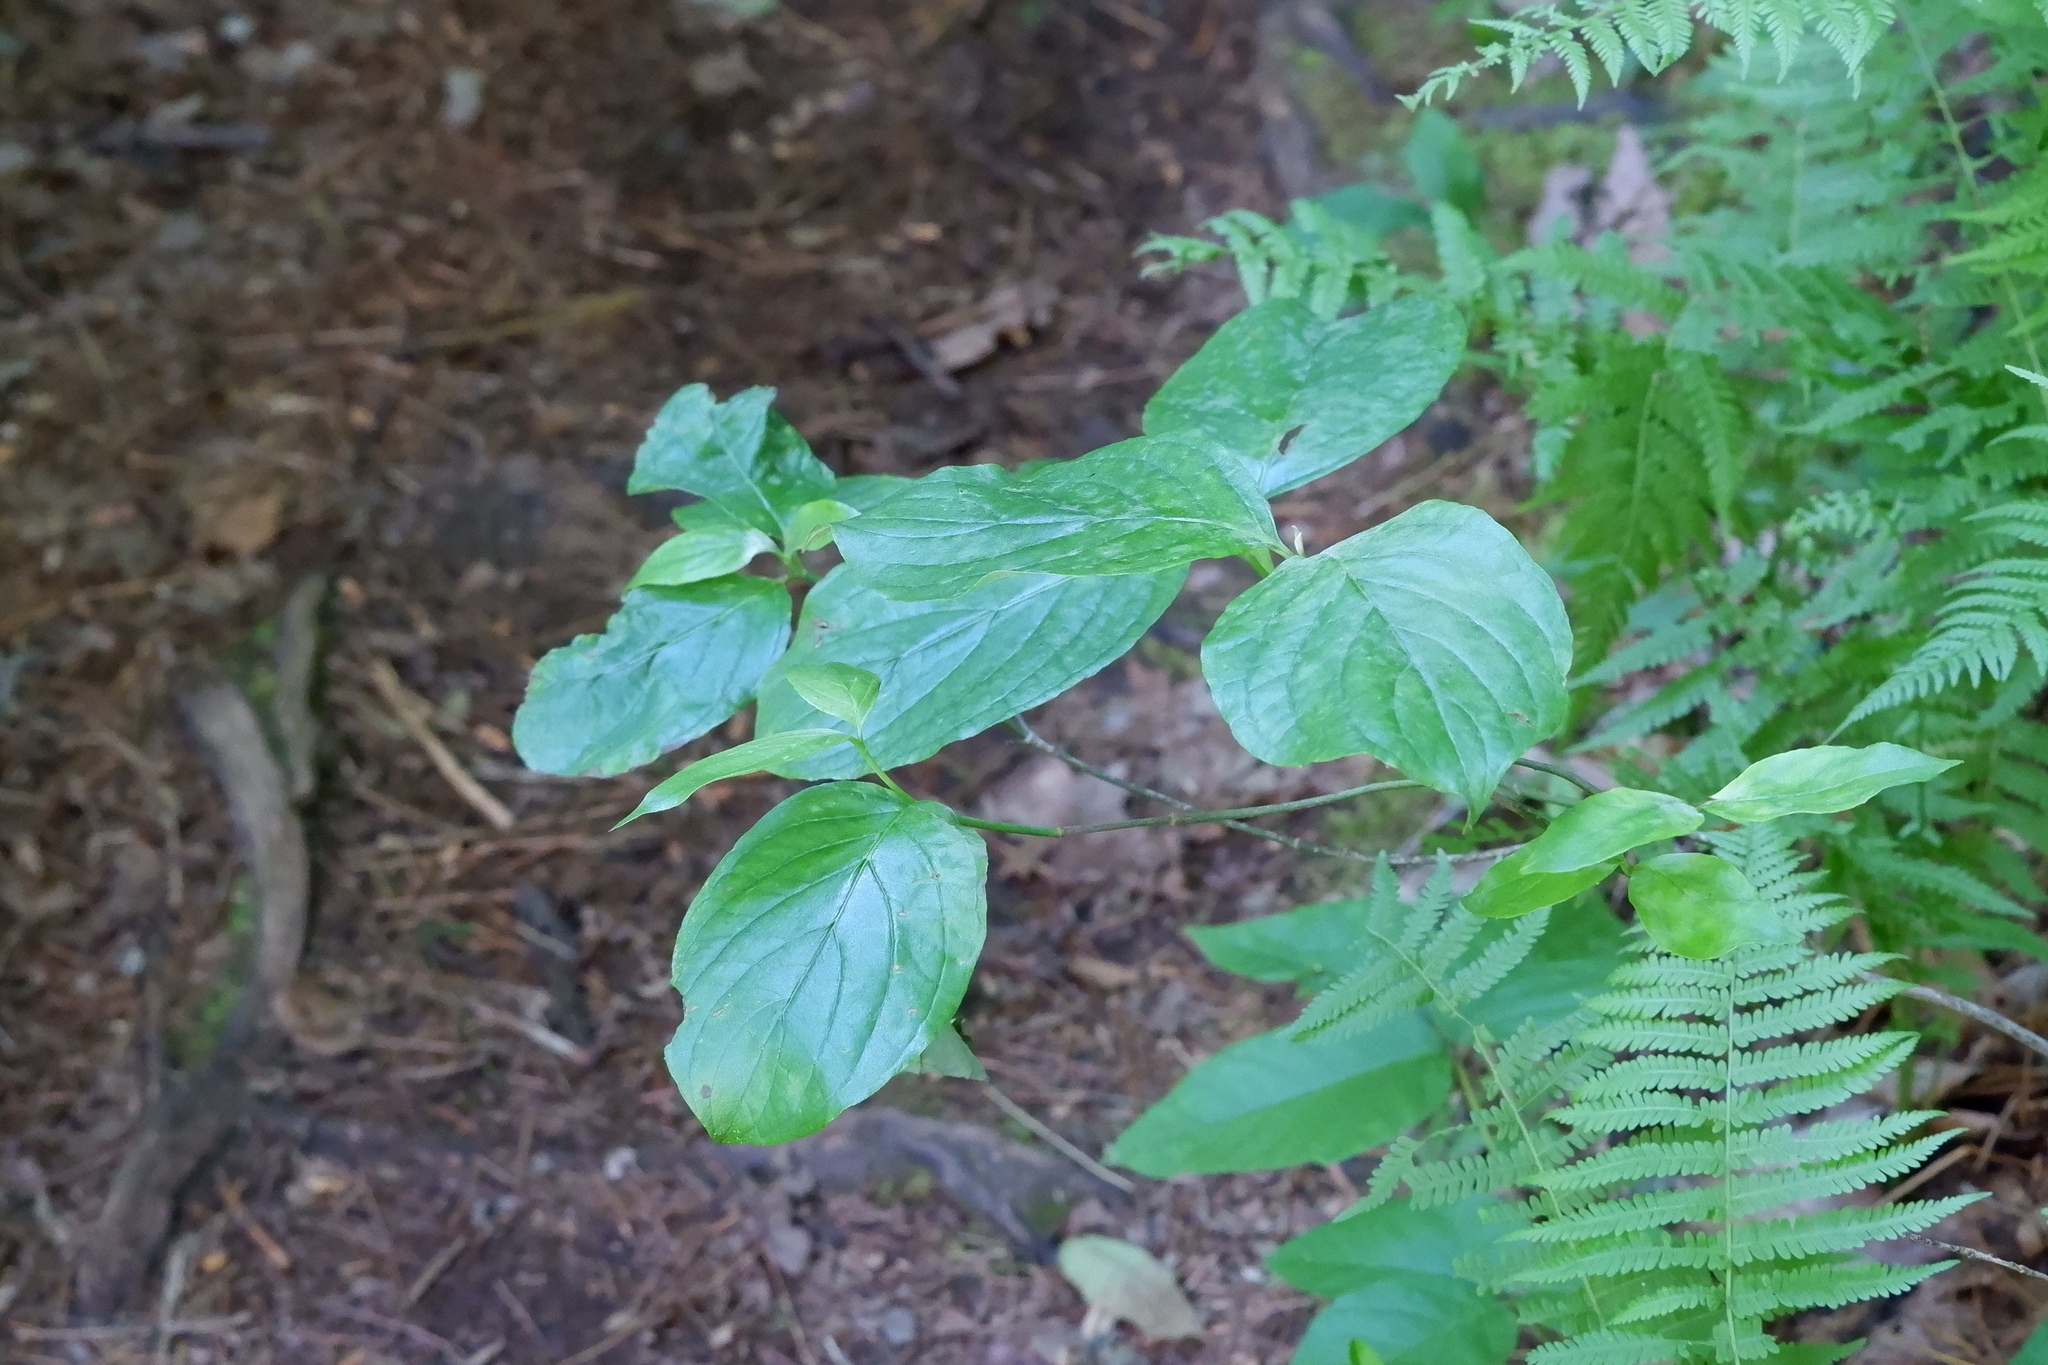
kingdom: Plantae
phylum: Tracheophyta
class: Magnoliopsida
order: Cornales
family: Cornaceae
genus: Cornus
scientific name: Cornus florida
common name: Flowering dogwood
